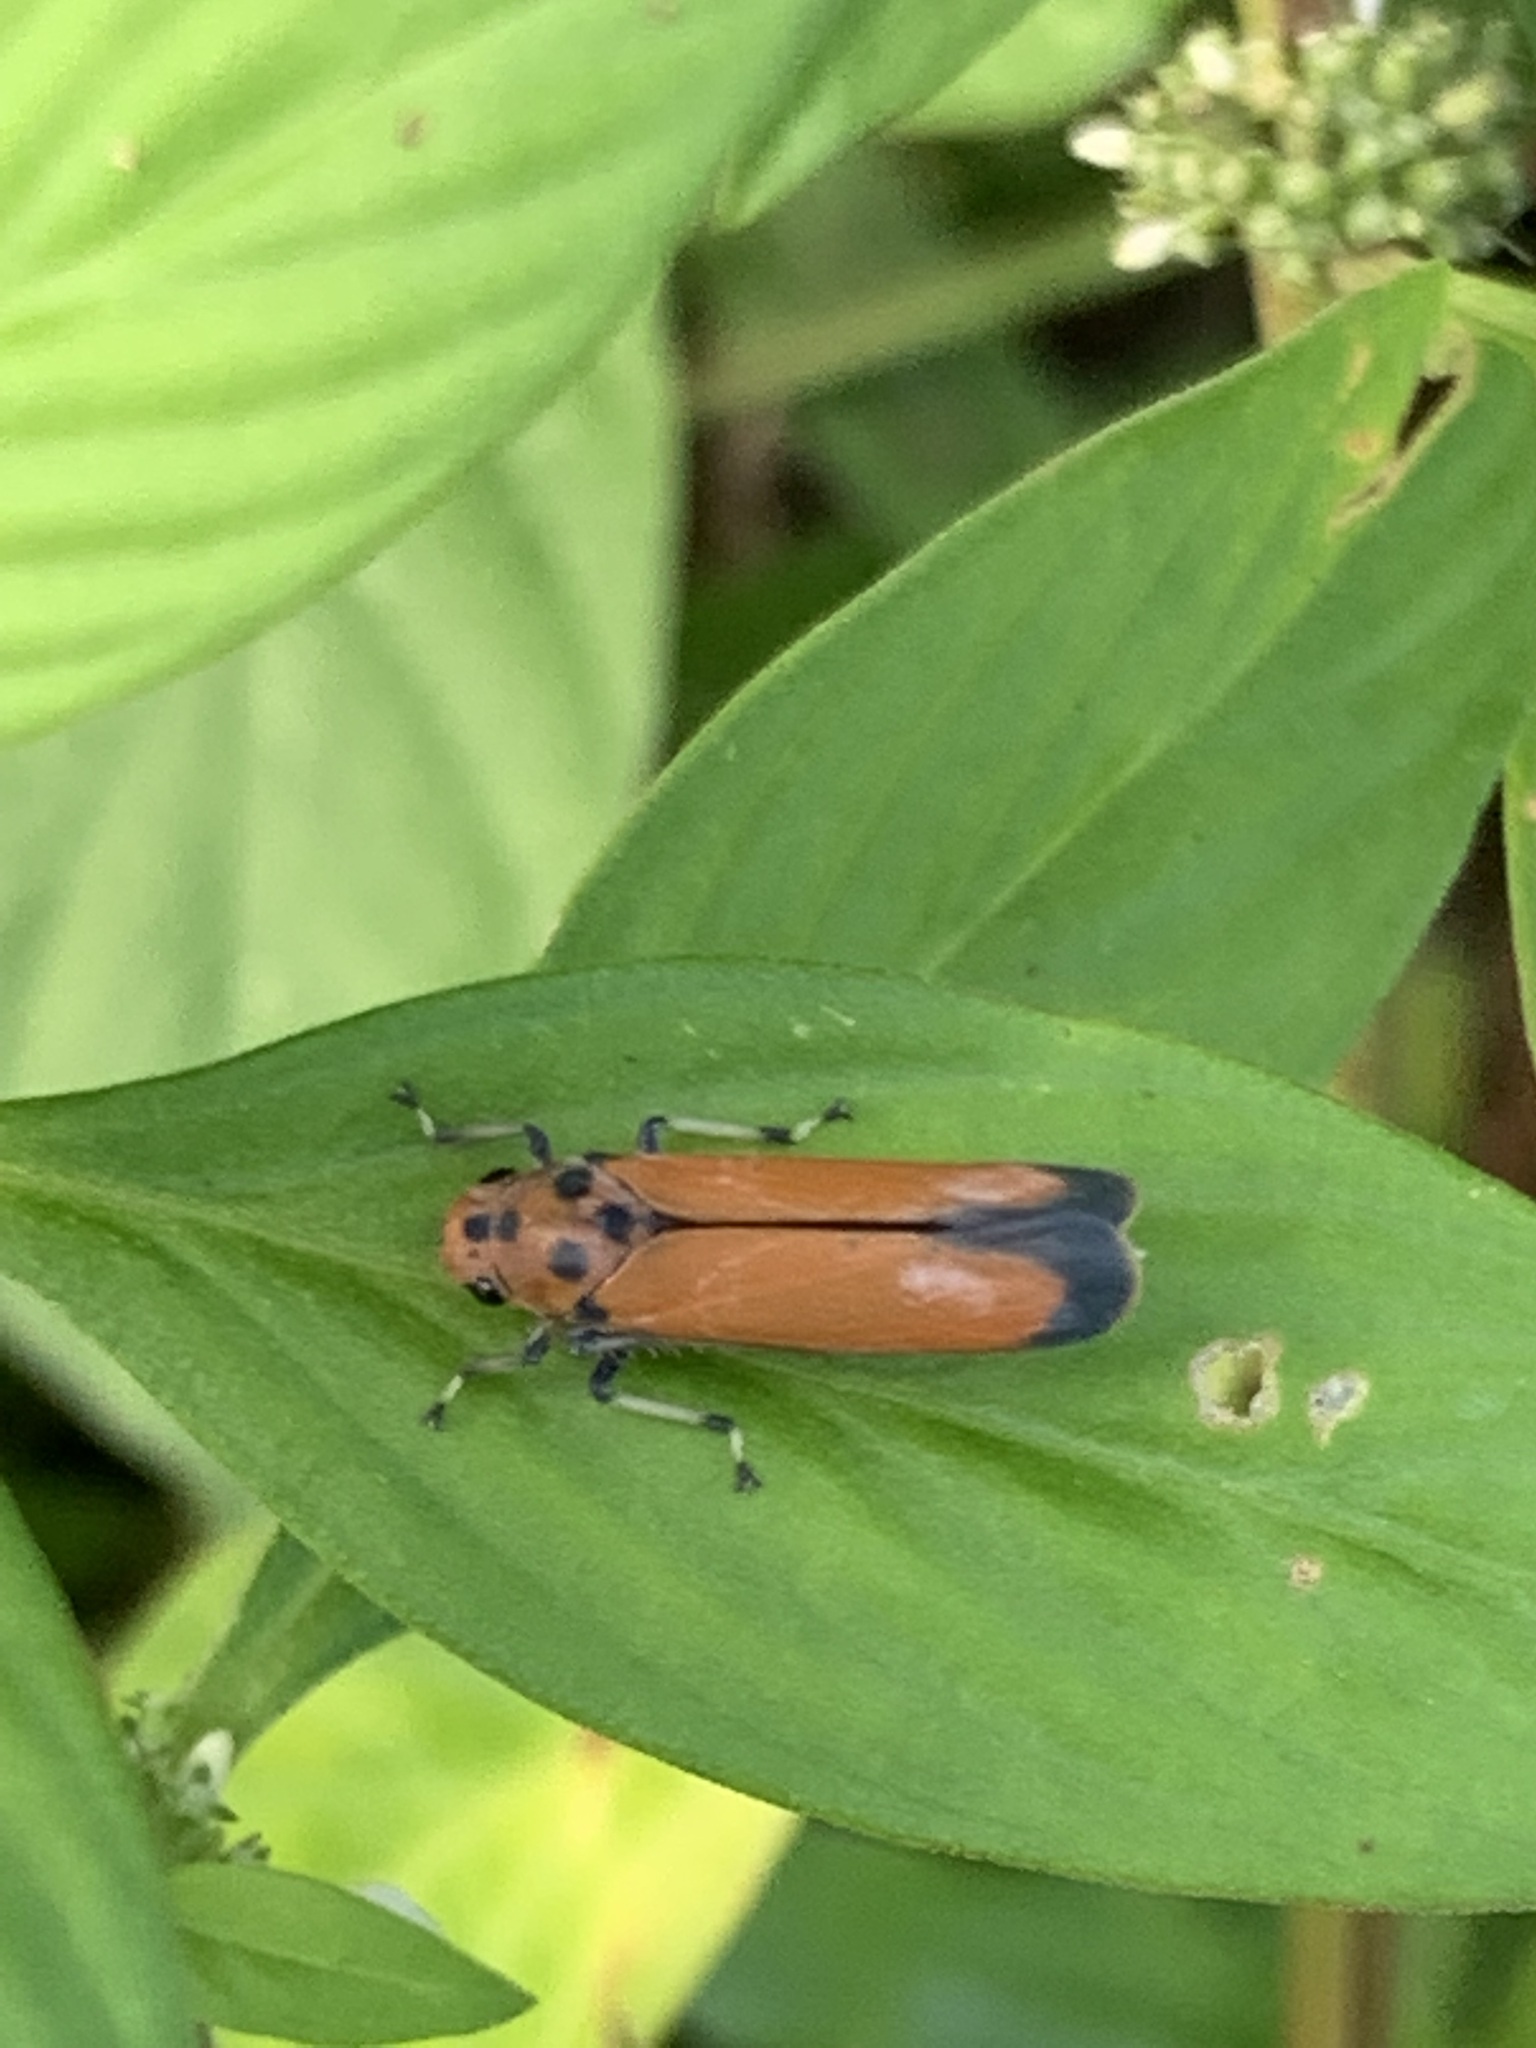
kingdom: Animalia
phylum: Arthropoda
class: Insecta
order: Hemiptera
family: Cicadellidae
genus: Bothrogonia
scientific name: Bothrogonia addita
